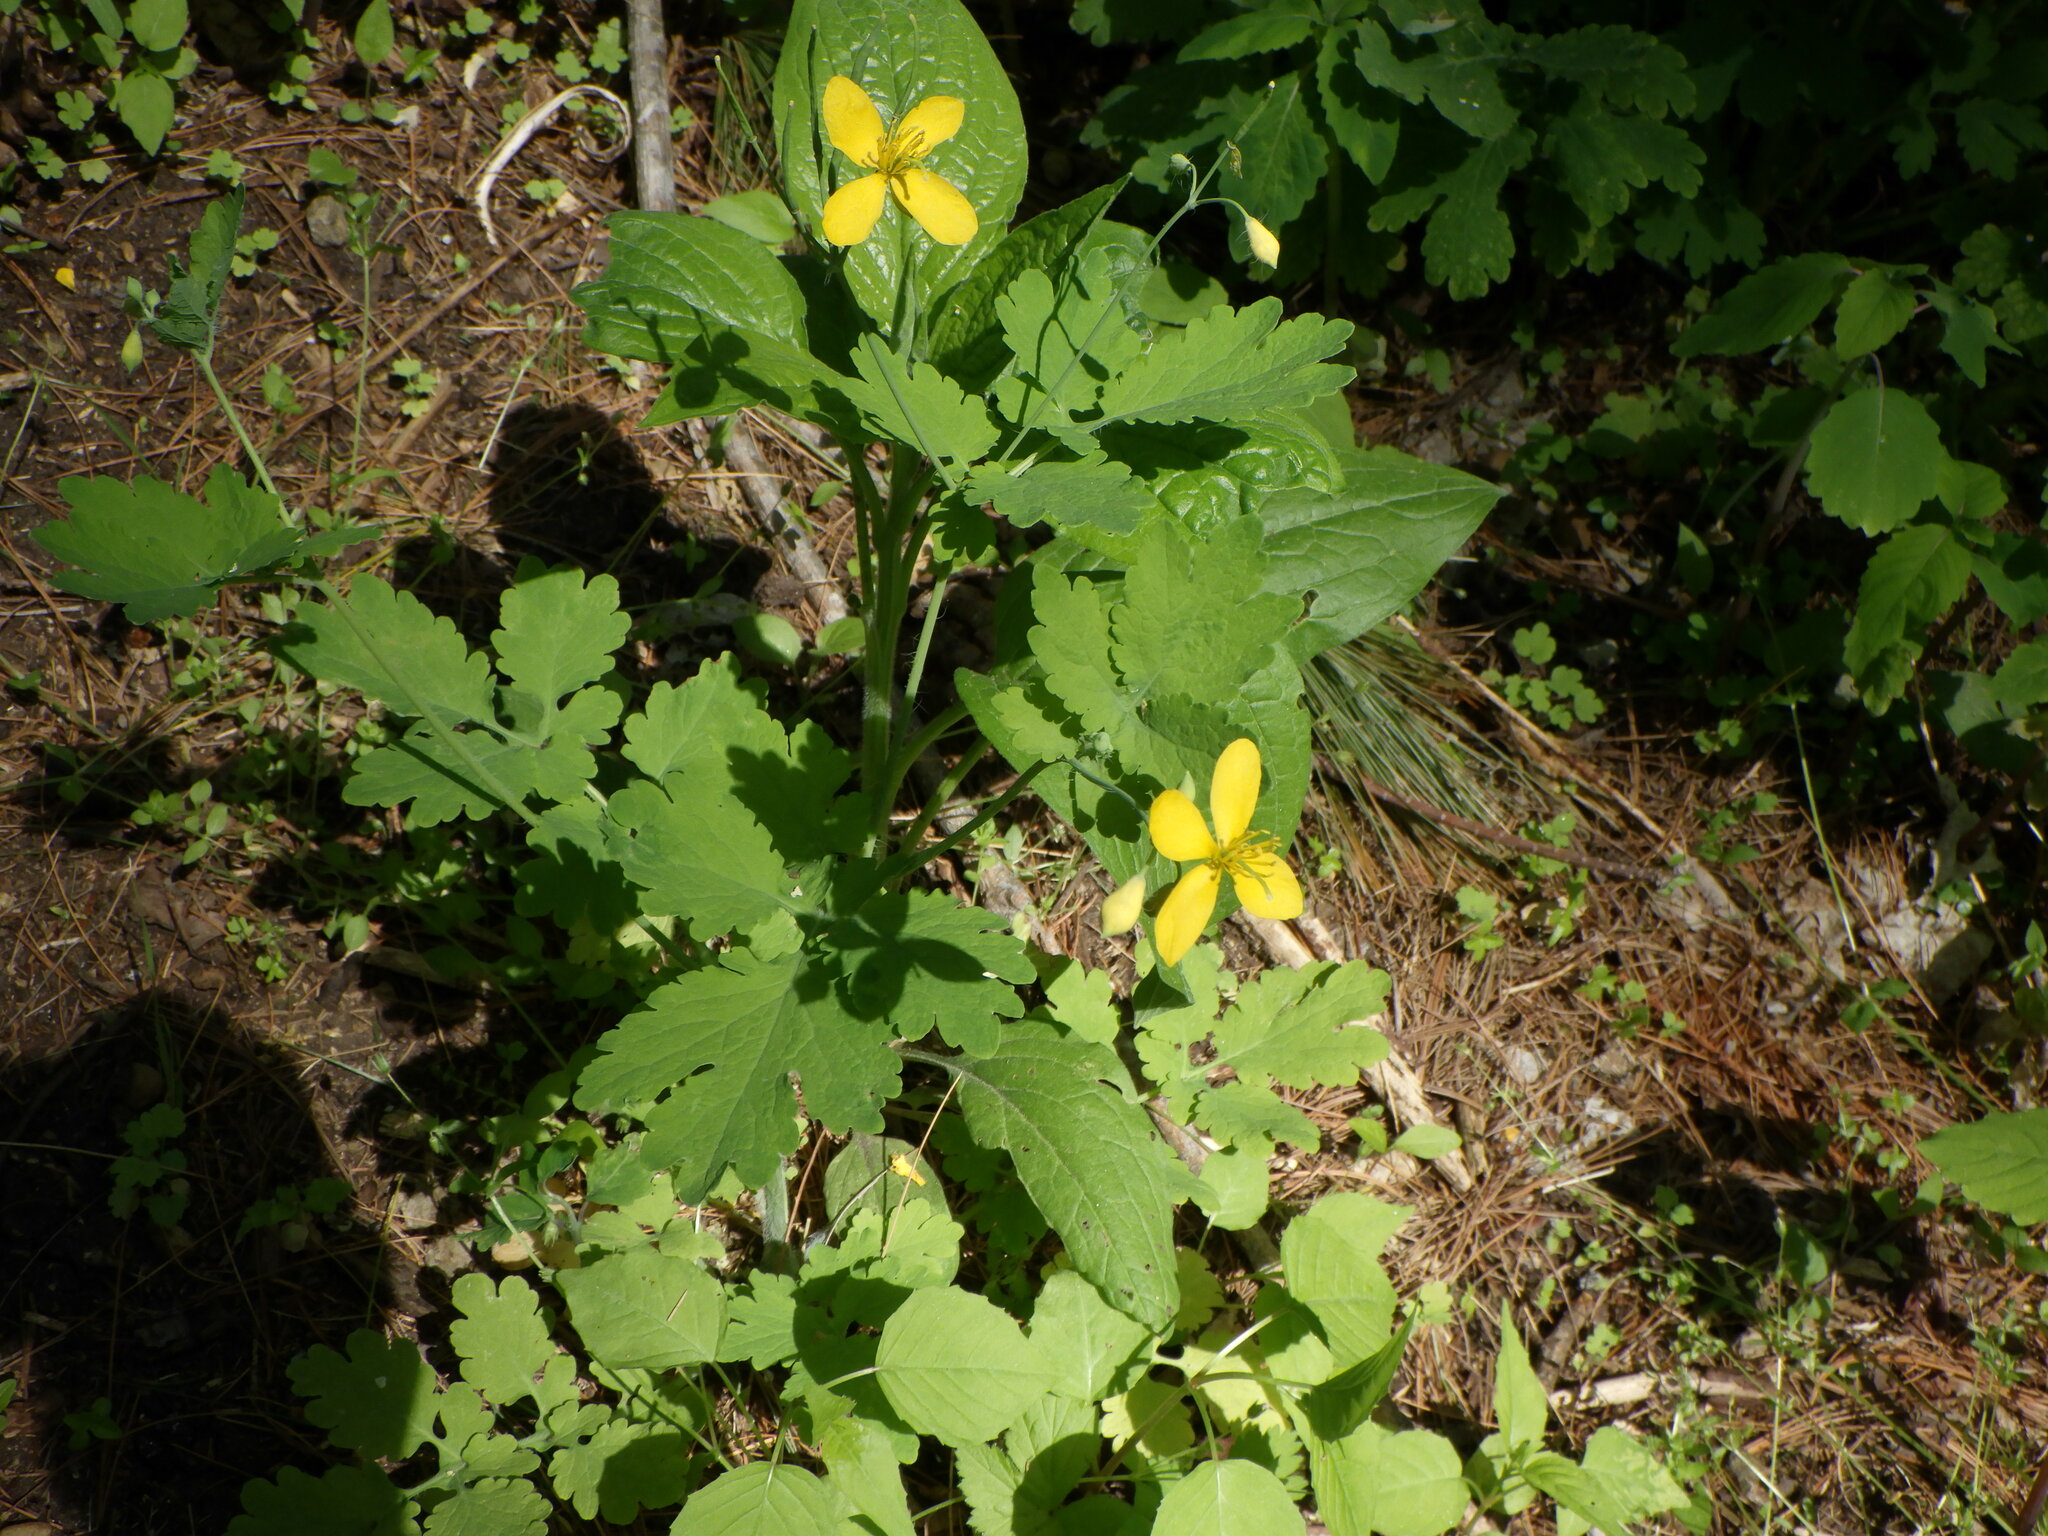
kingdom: Plantae
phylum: Tracheophyta
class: Magnoliopsida
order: Ranunculales
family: Papaveraceae
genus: Chelidonium
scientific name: Chelidonium majus
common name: Greater celandine
